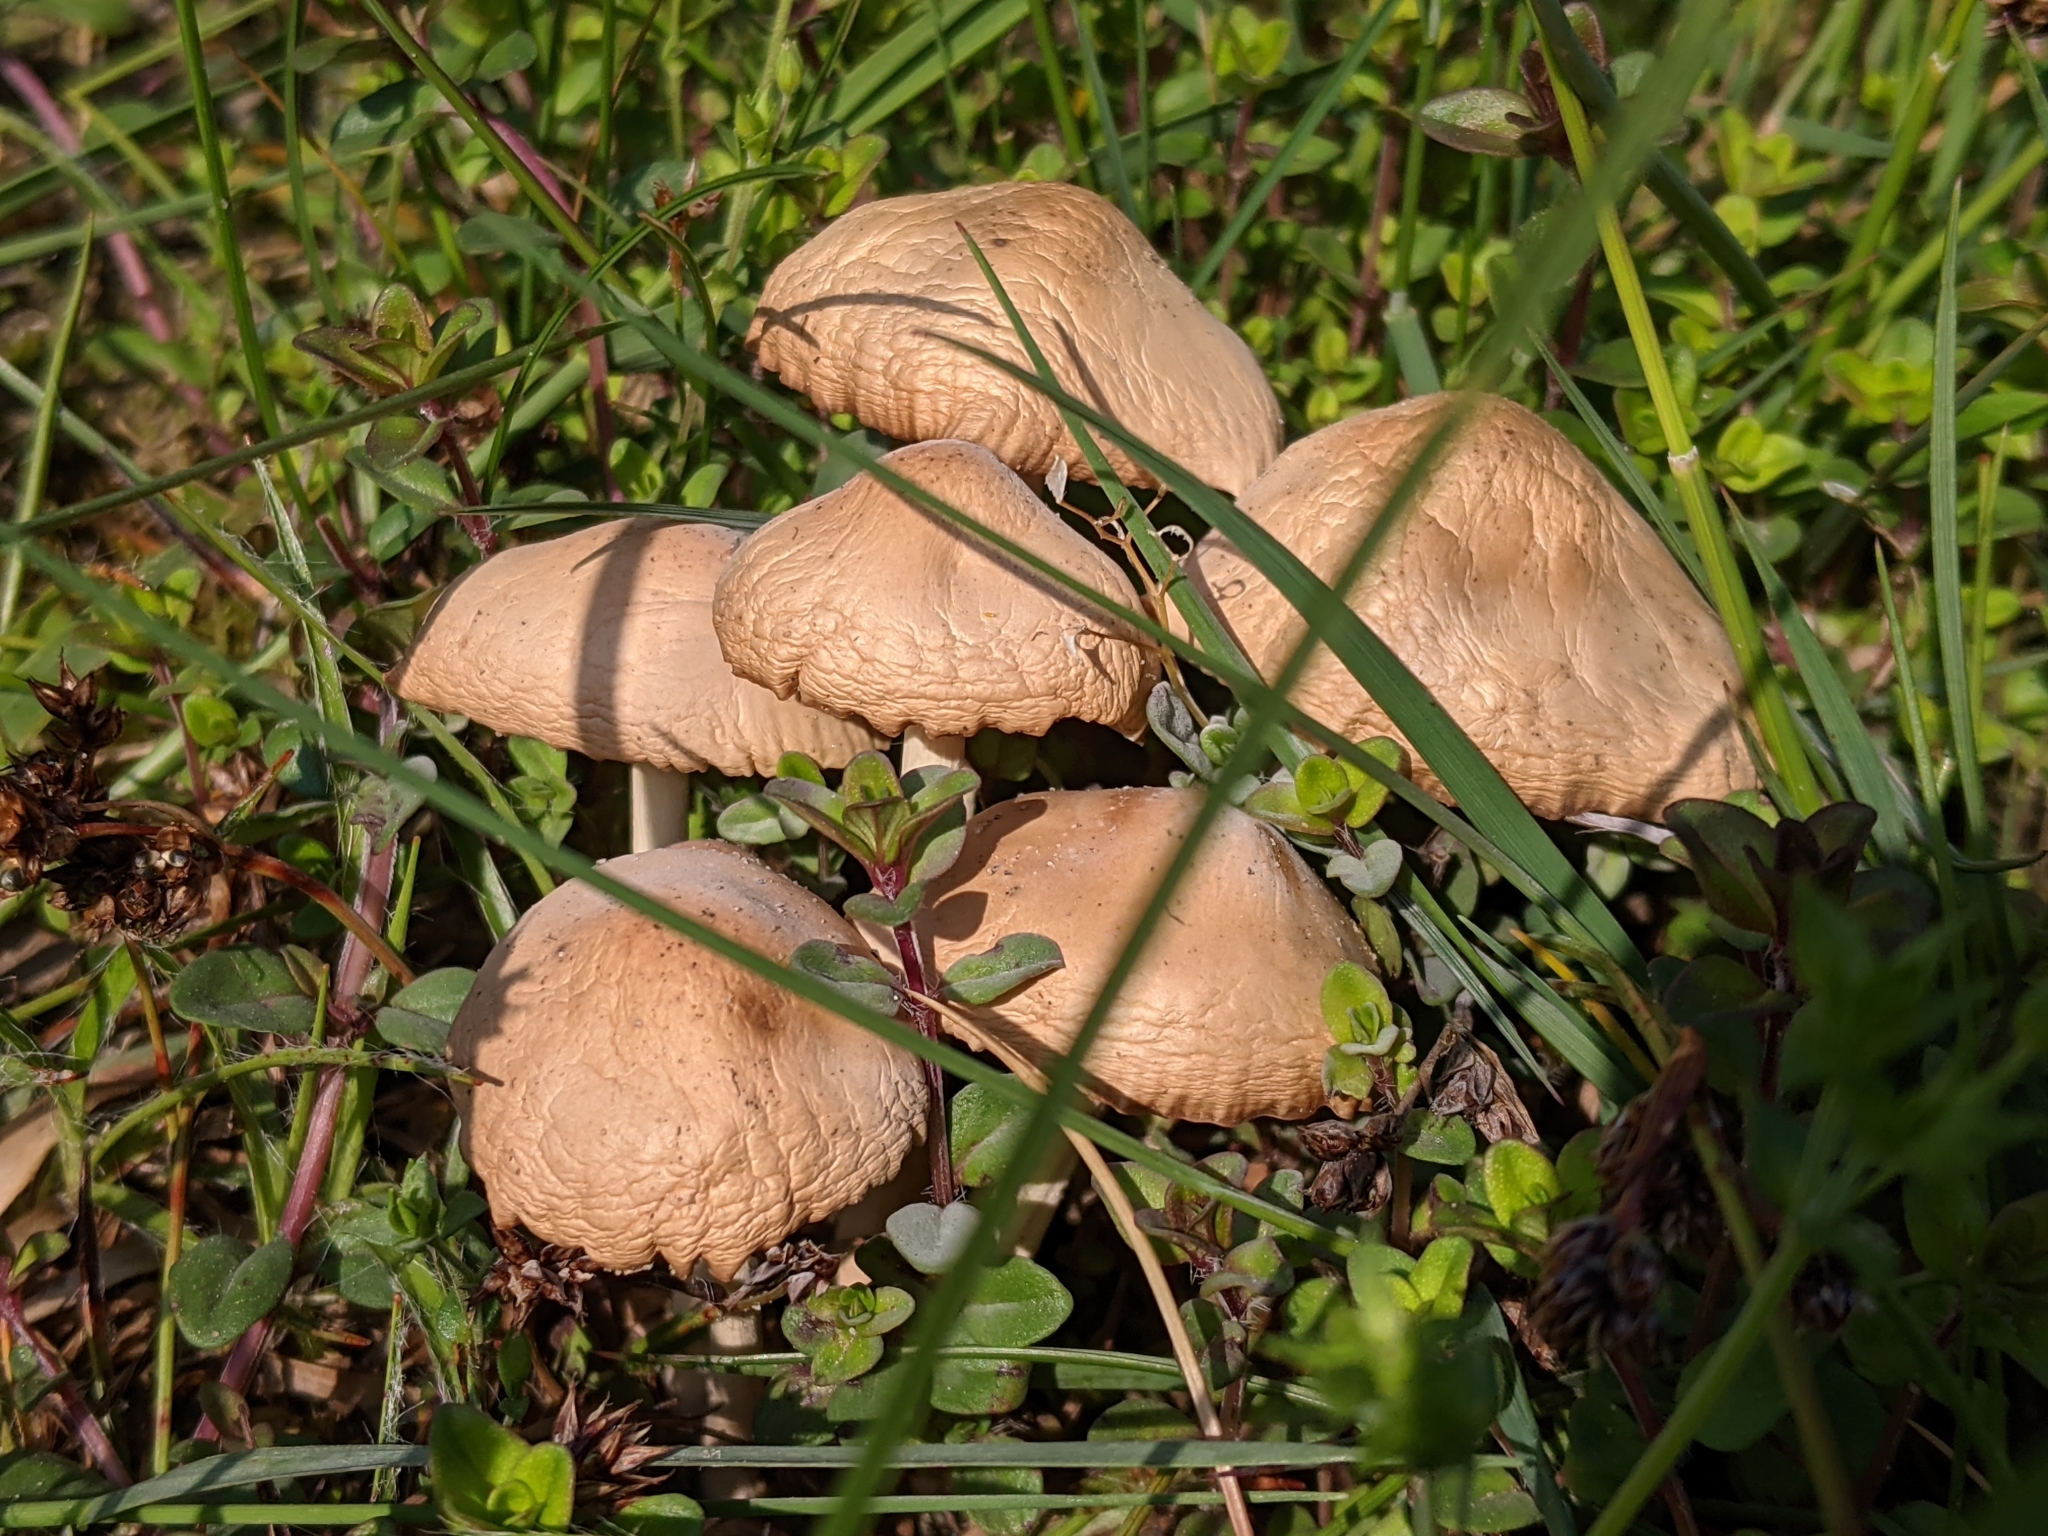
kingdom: Fungi
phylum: Basidiomycota
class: Agaricomycetes
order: Agaricales
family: Marasmiaceae
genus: Marasmius
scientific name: Marasmius oreades
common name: Fairy ring champignon
